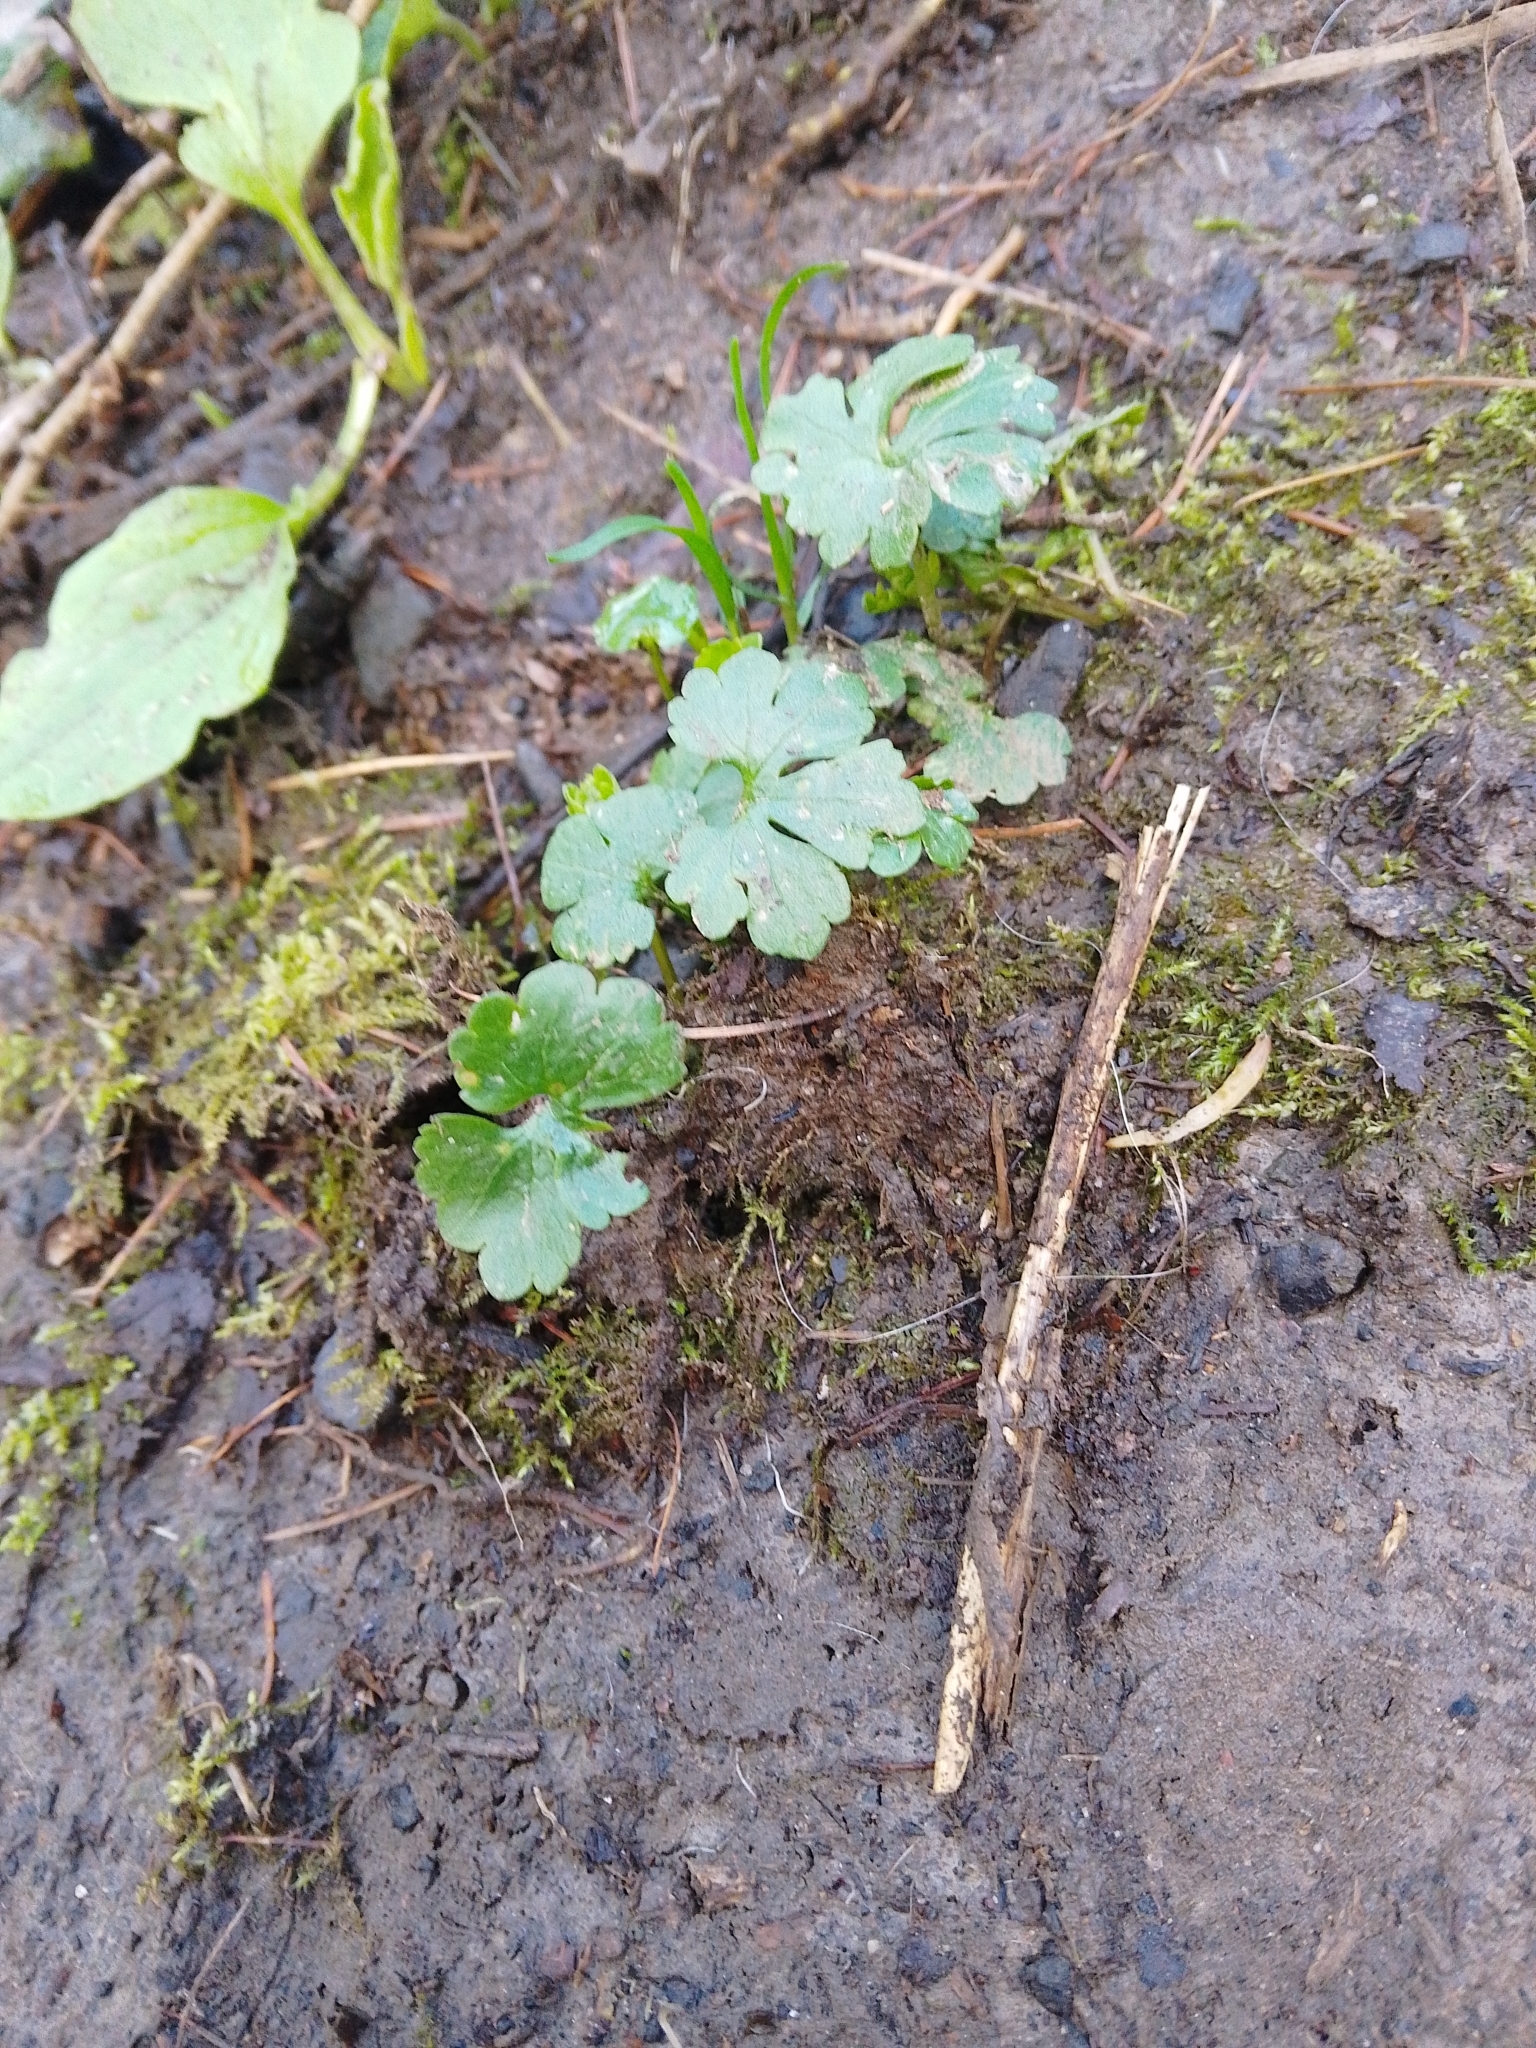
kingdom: Plantae
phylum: Tracheophyta
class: Magnoliopsida
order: Ranunculales
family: Ranunculaceae
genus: Ranunculus
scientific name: Ranunculus auricomus
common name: Goldilocks buttercup
